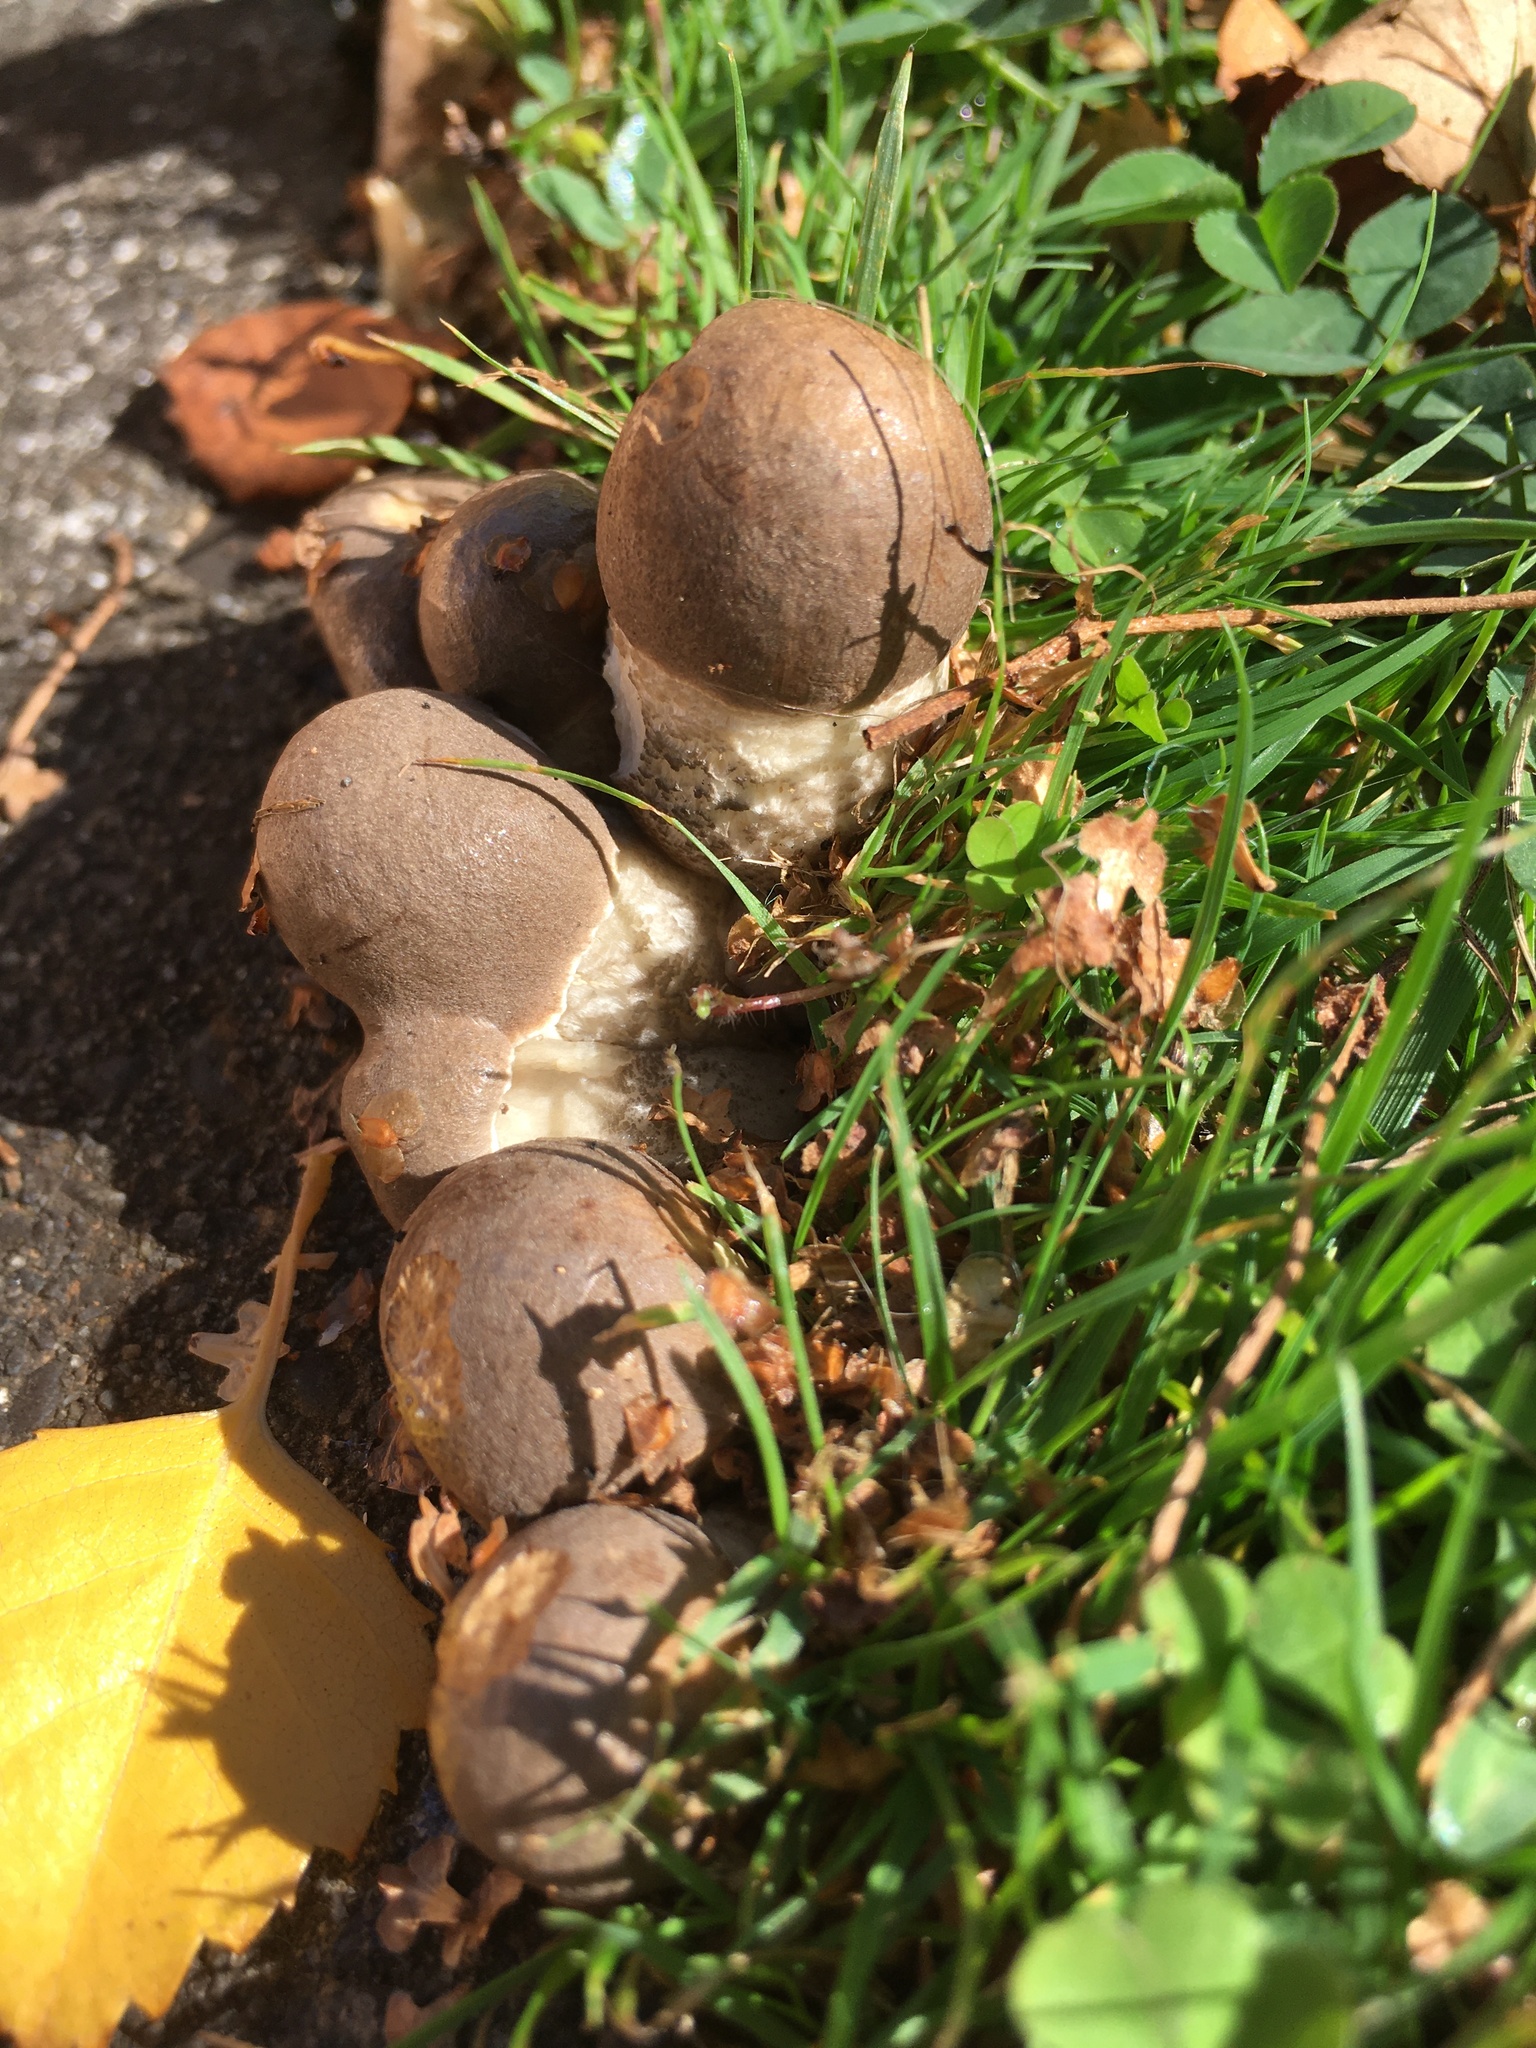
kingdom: Fungi
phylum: Basidiomycota
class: Agaricomycetes
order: Boletales
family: Boletaceae
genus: Leccinum
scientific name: Leccinum scabrum
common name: Blushing bolete
